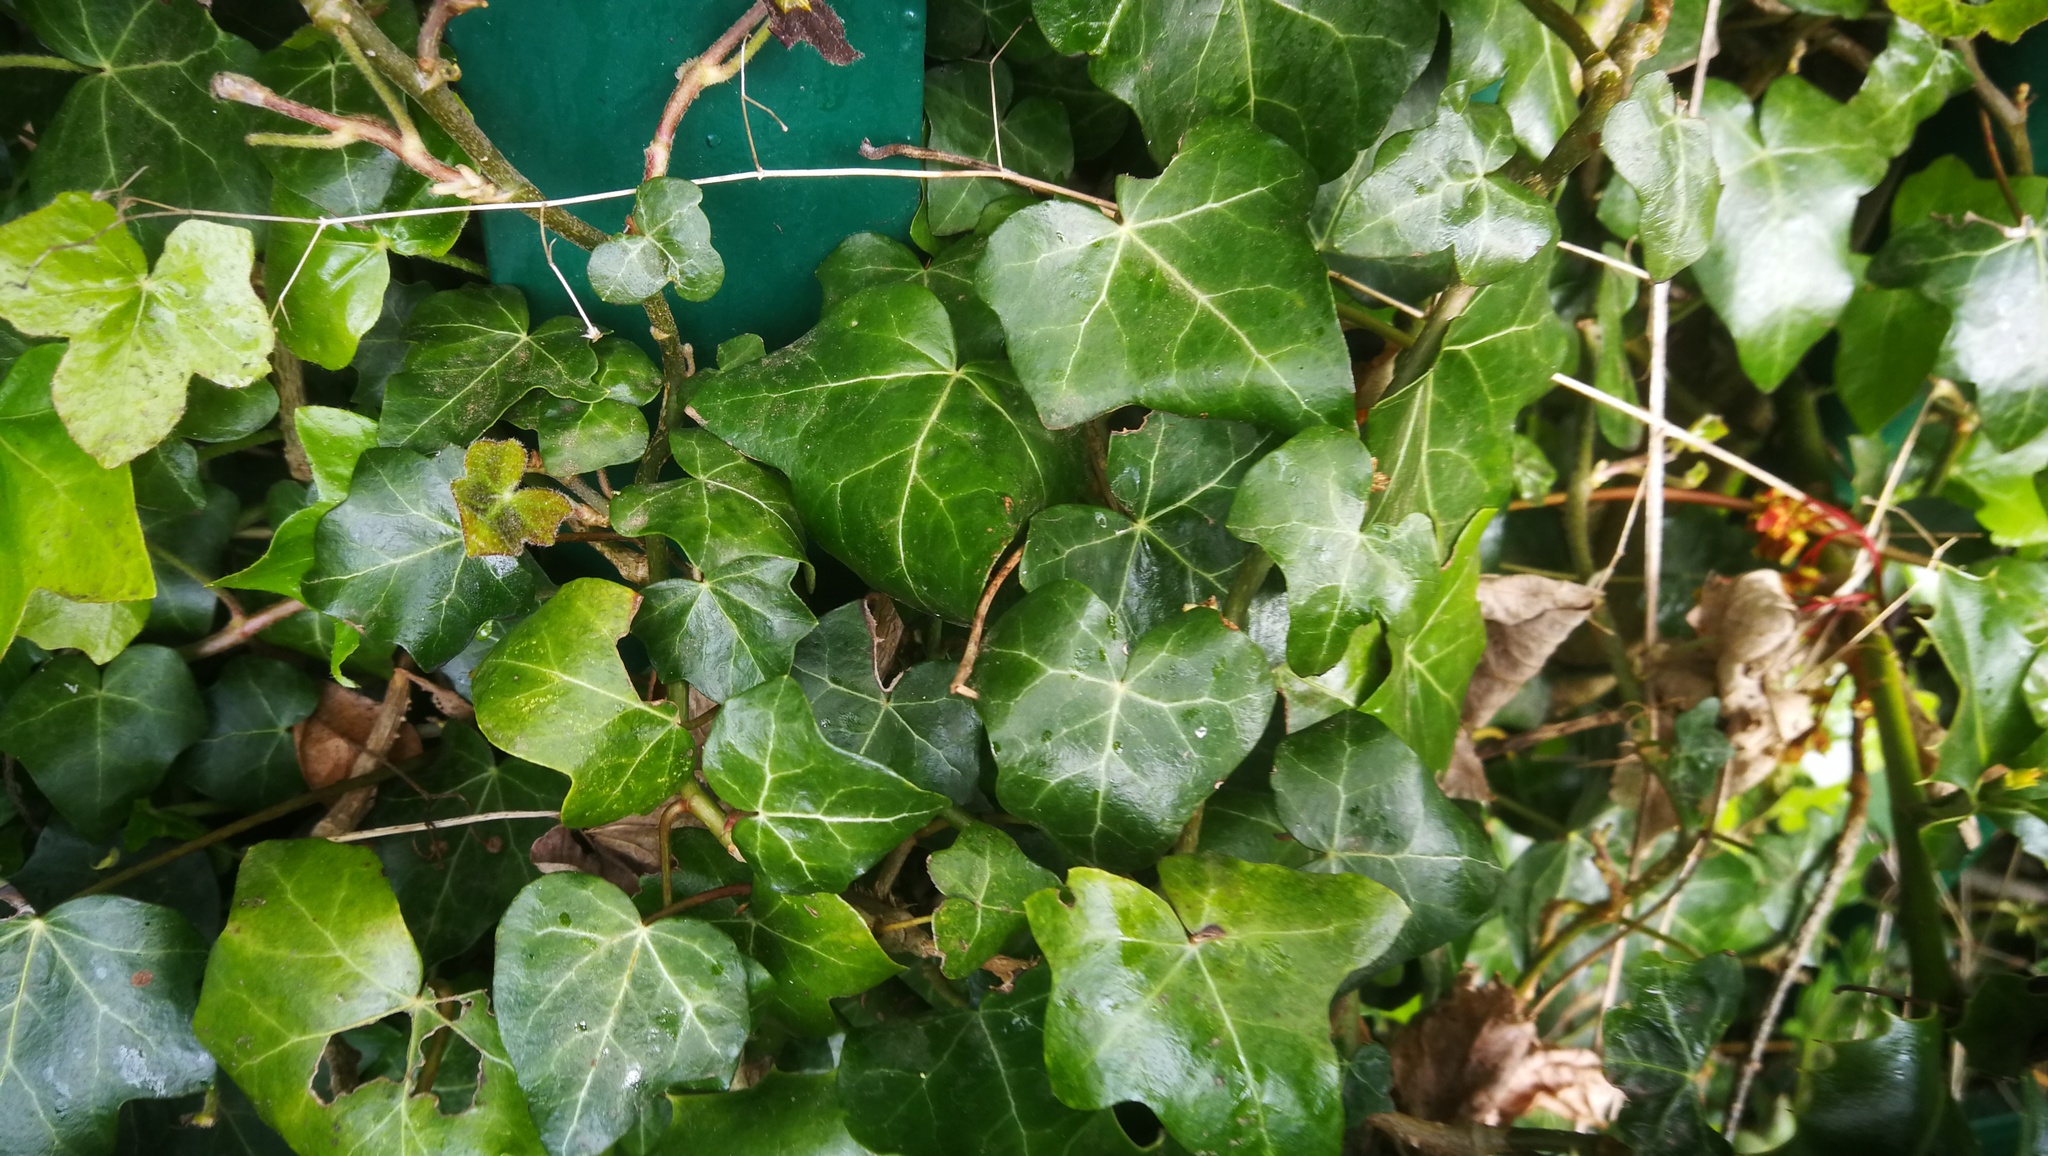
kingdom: Plantae
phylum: Tracheophyta
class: Magnoliopsida
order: Apiales
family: Araliaceae
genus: Hedera
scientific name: Hedera helix
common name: Ivy
